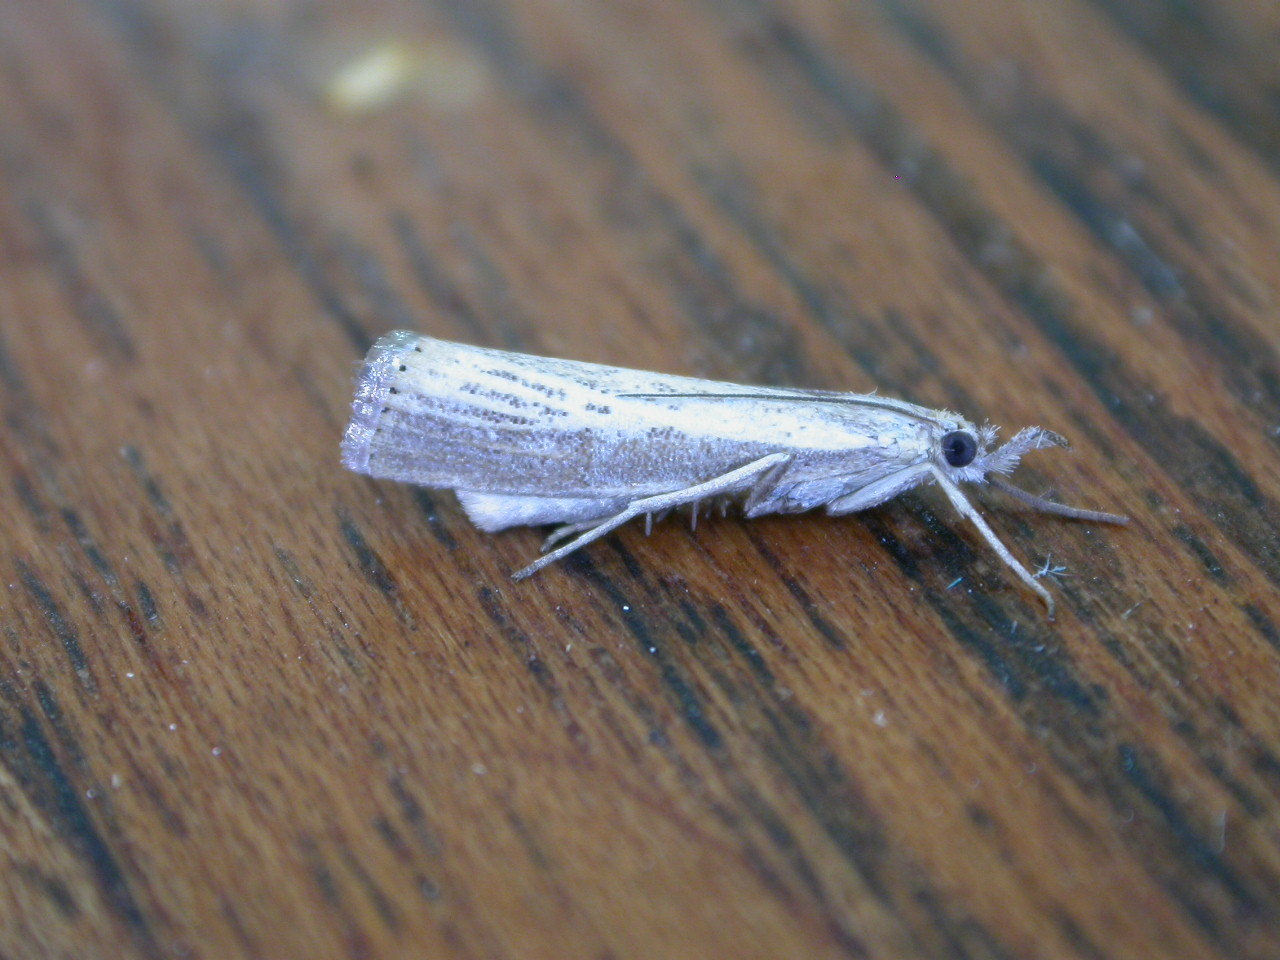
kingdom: Animalia
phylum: Arthropoda
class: Insecta
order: Lepidoptera
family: Crambidae
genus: Agriphila
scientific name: Agriphila straminella
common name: Straw grass-veneer
